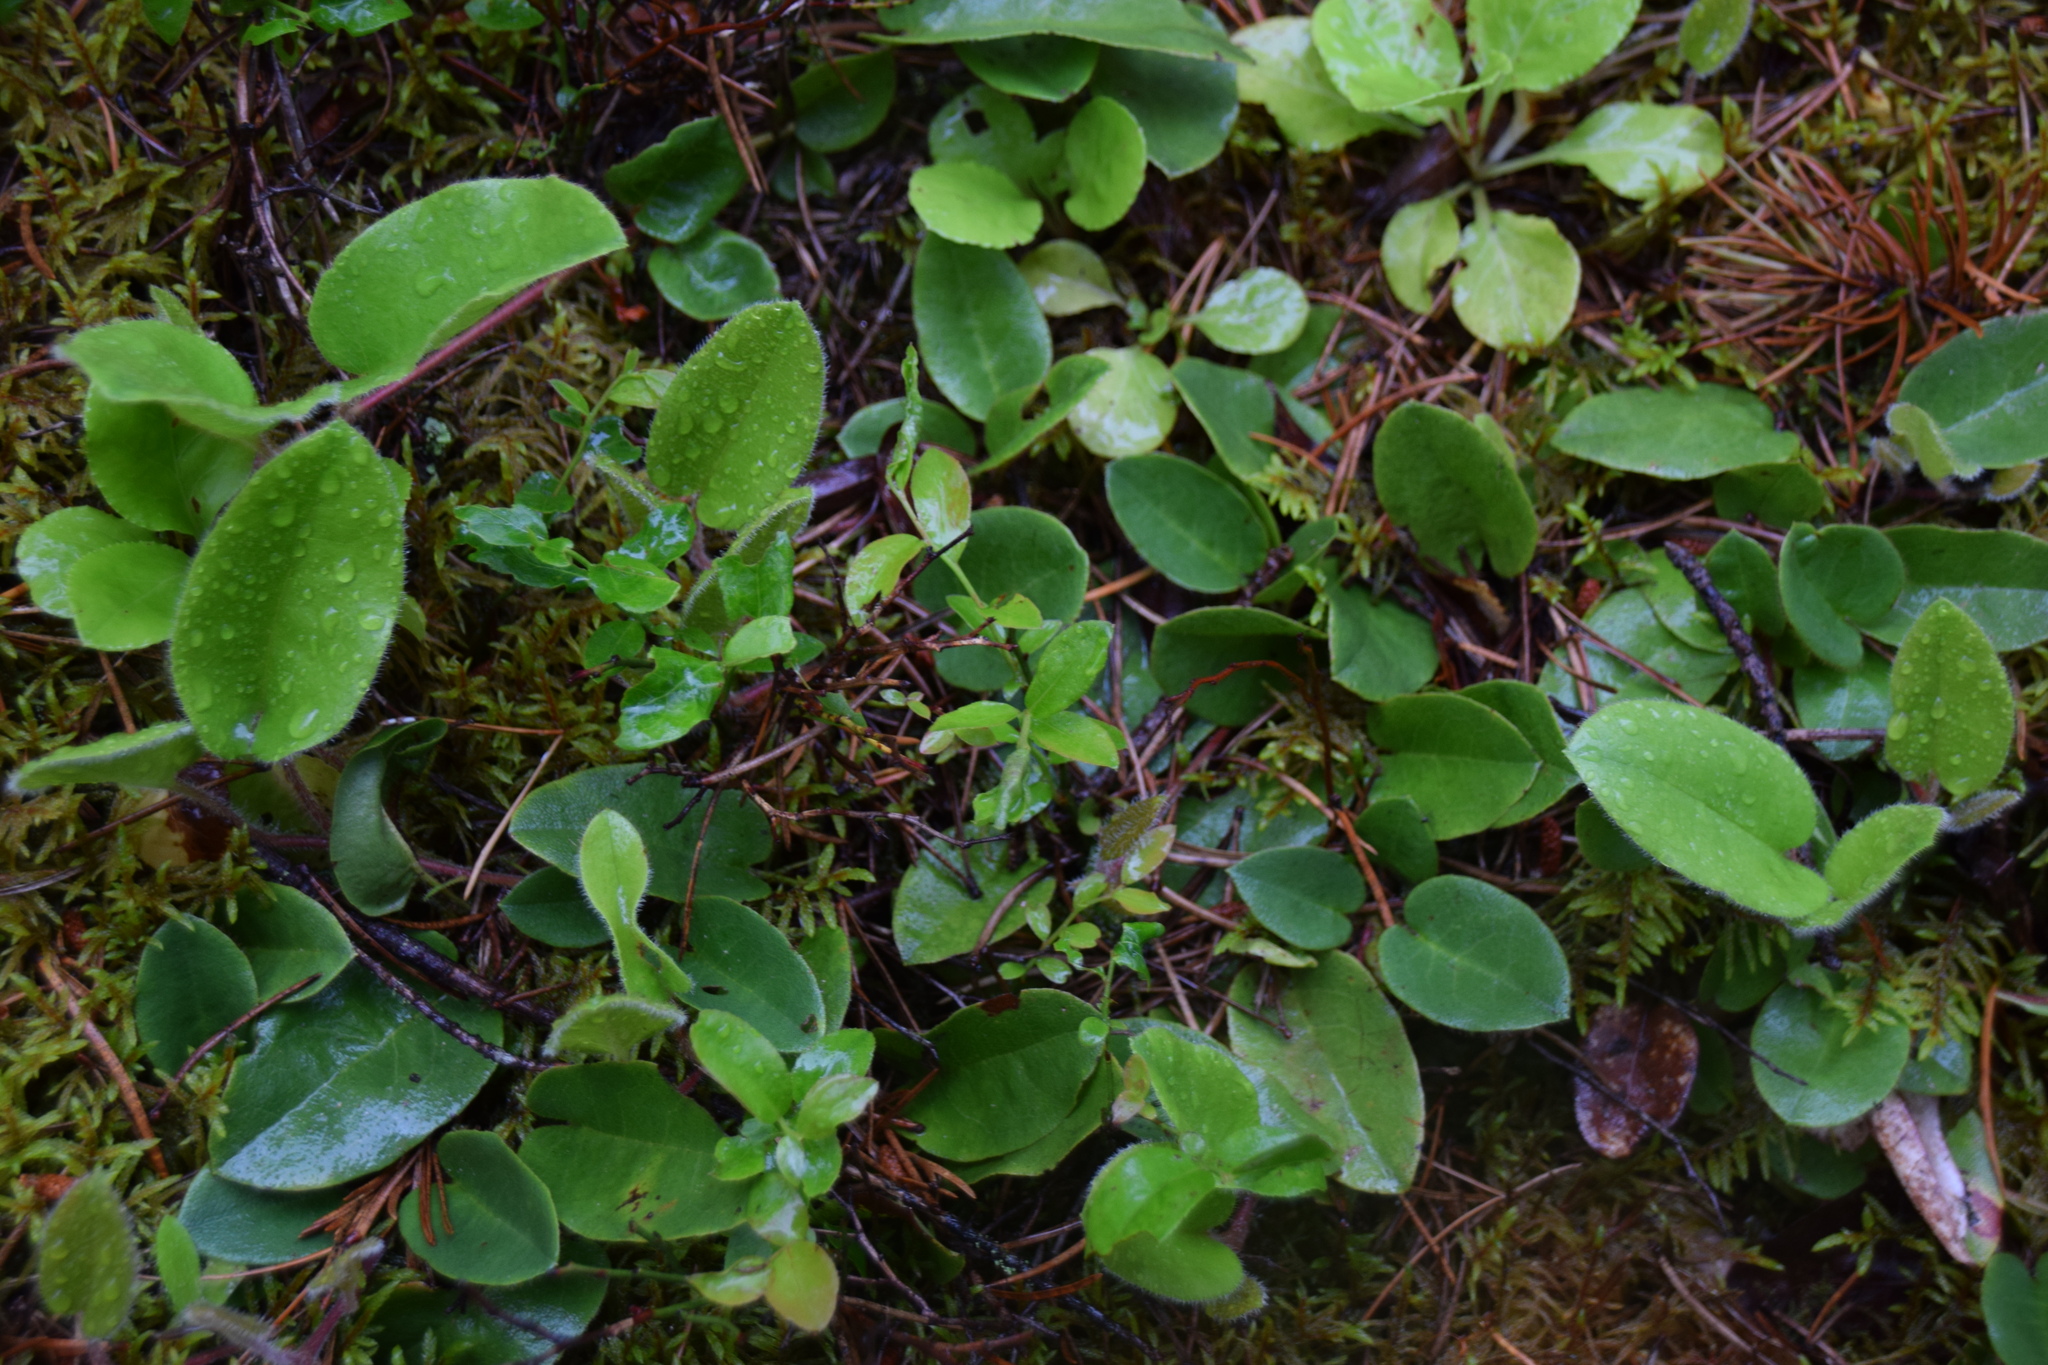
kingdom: Plantae
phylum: Tracheophyta
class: Magnoliopsida
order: Ericales
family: Ericaceae
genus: Epigaea
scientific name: Epigaea repens
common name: Gravelroot
